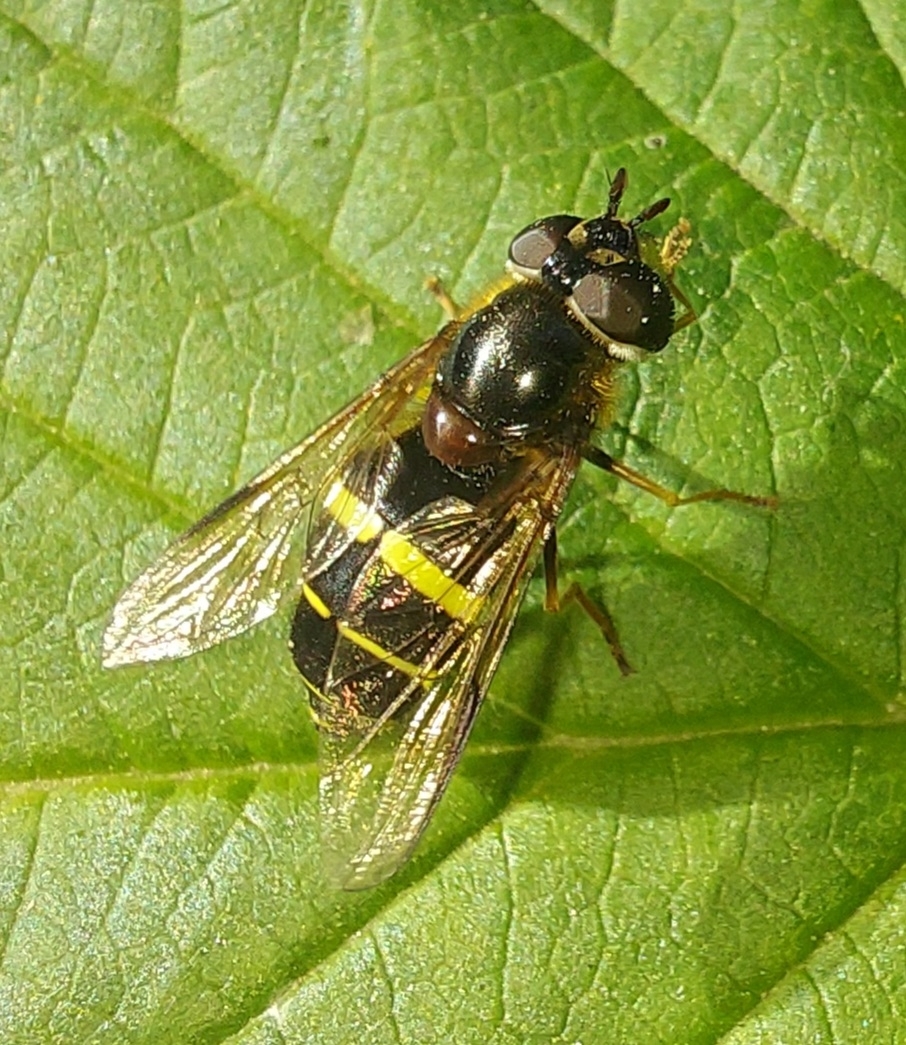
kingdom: Animalia
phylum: Arthropoda
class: Insecta
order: Diptera
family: Syrphidae
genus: Dasysyrphus
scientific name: Dasysyrphus tricinctus
